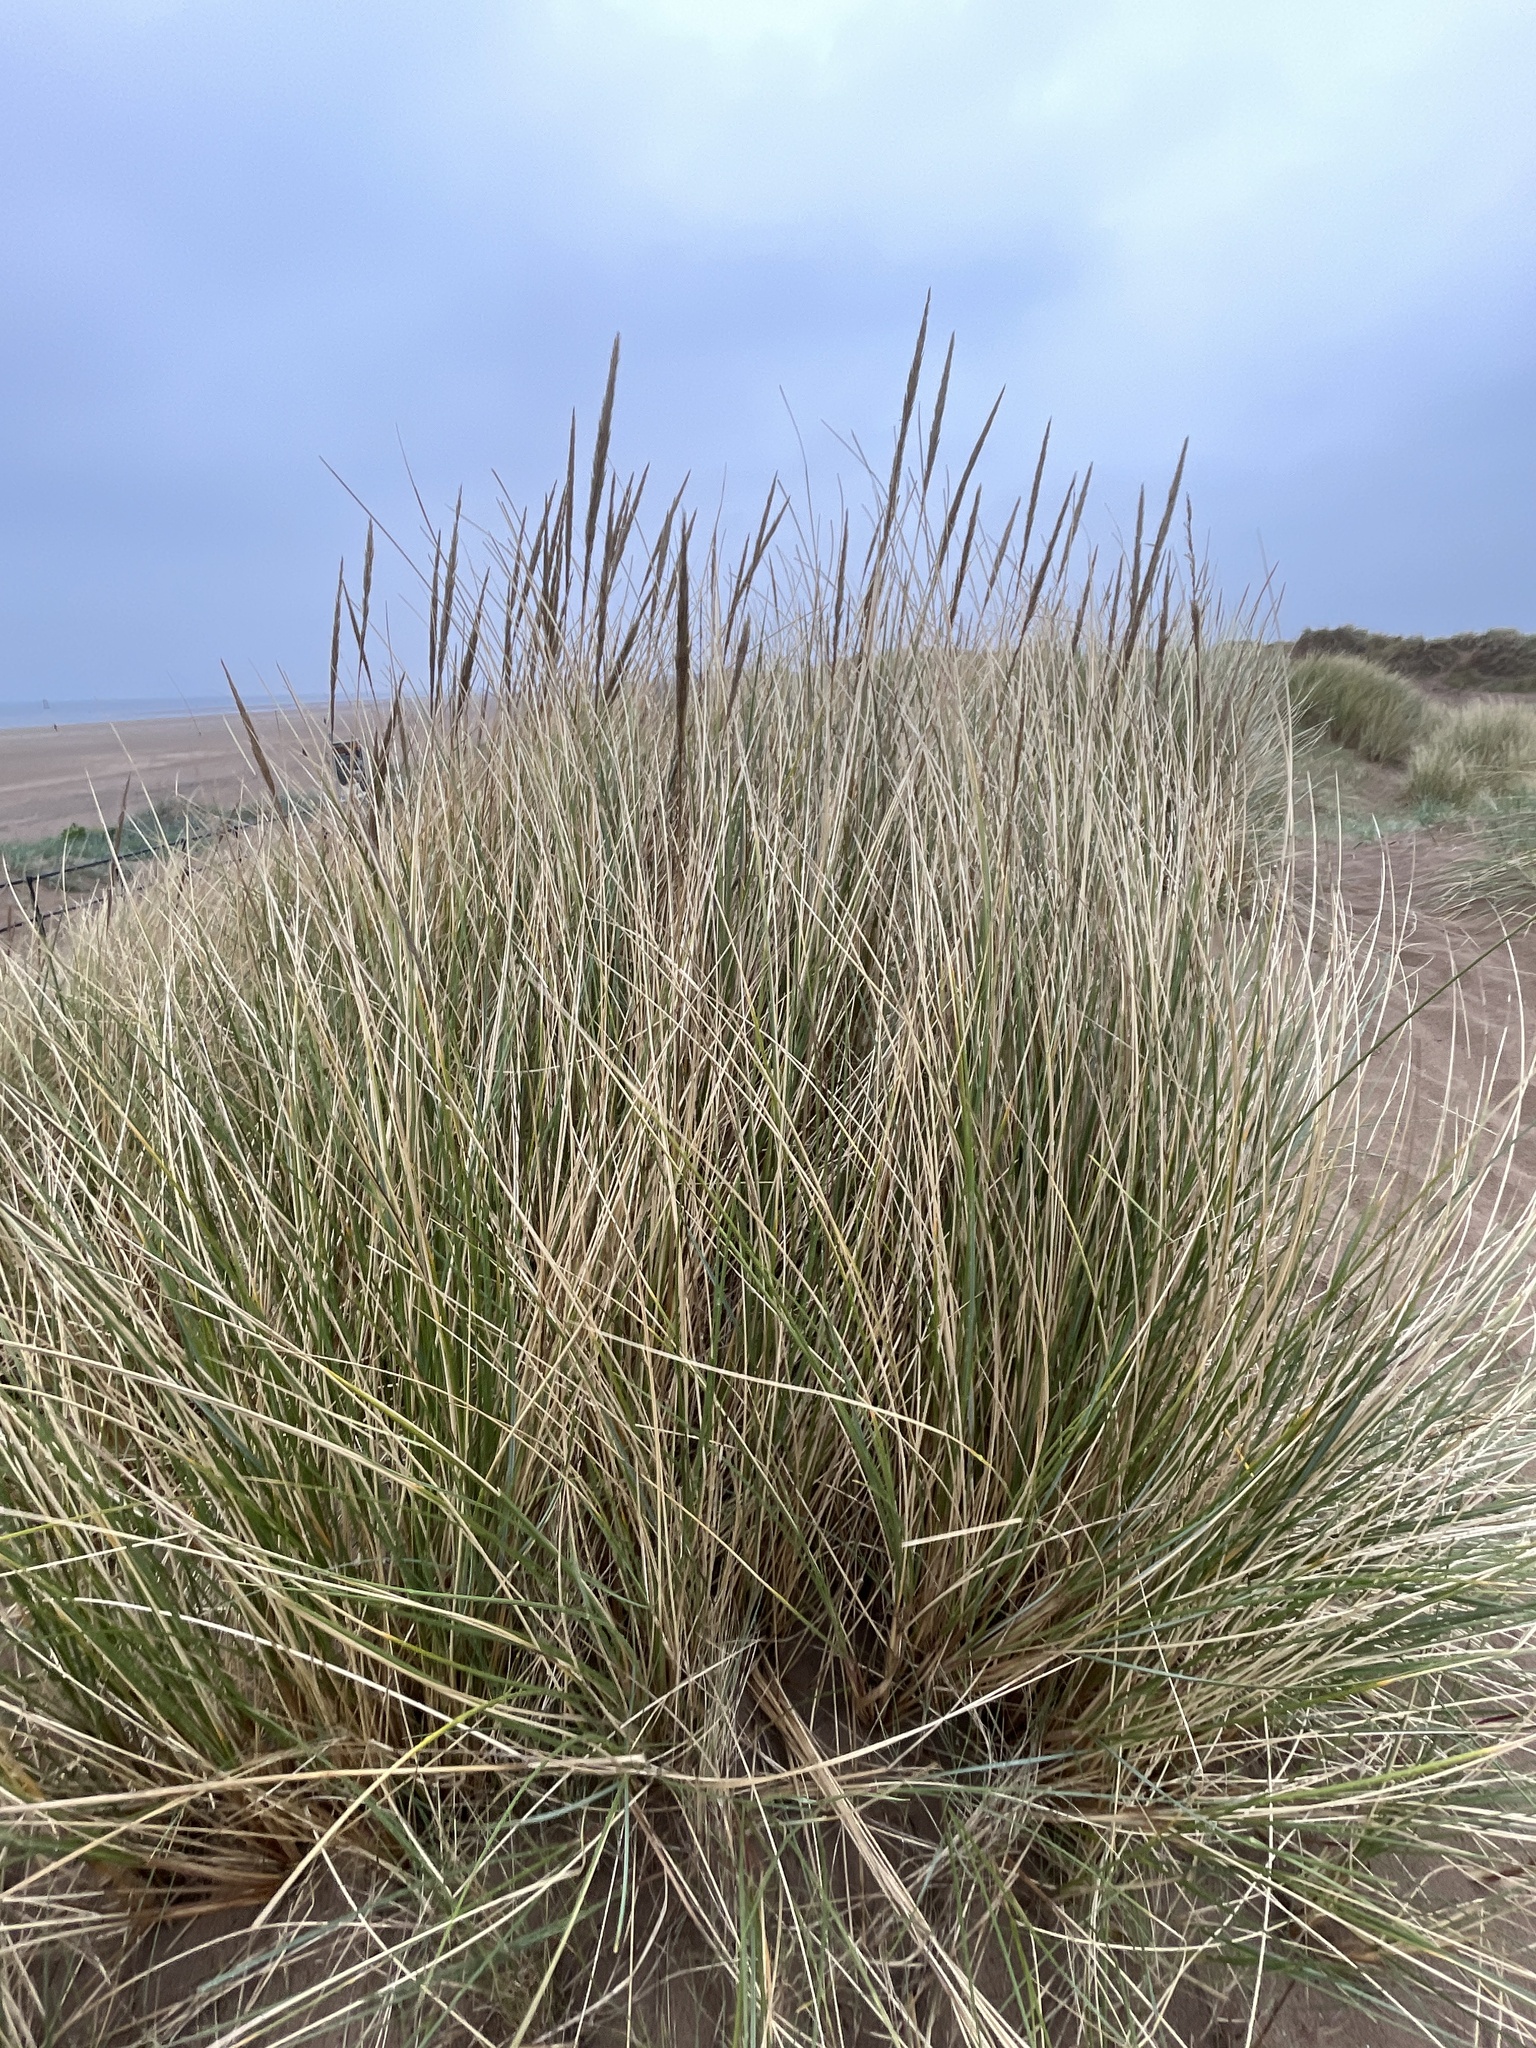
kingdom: Plantae
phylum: Tracheophyta
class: Liliopsida
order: Poales
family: Poaceae
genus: Calamagrostis
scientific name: Calamagrostis arenaria
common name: European beachgrass
